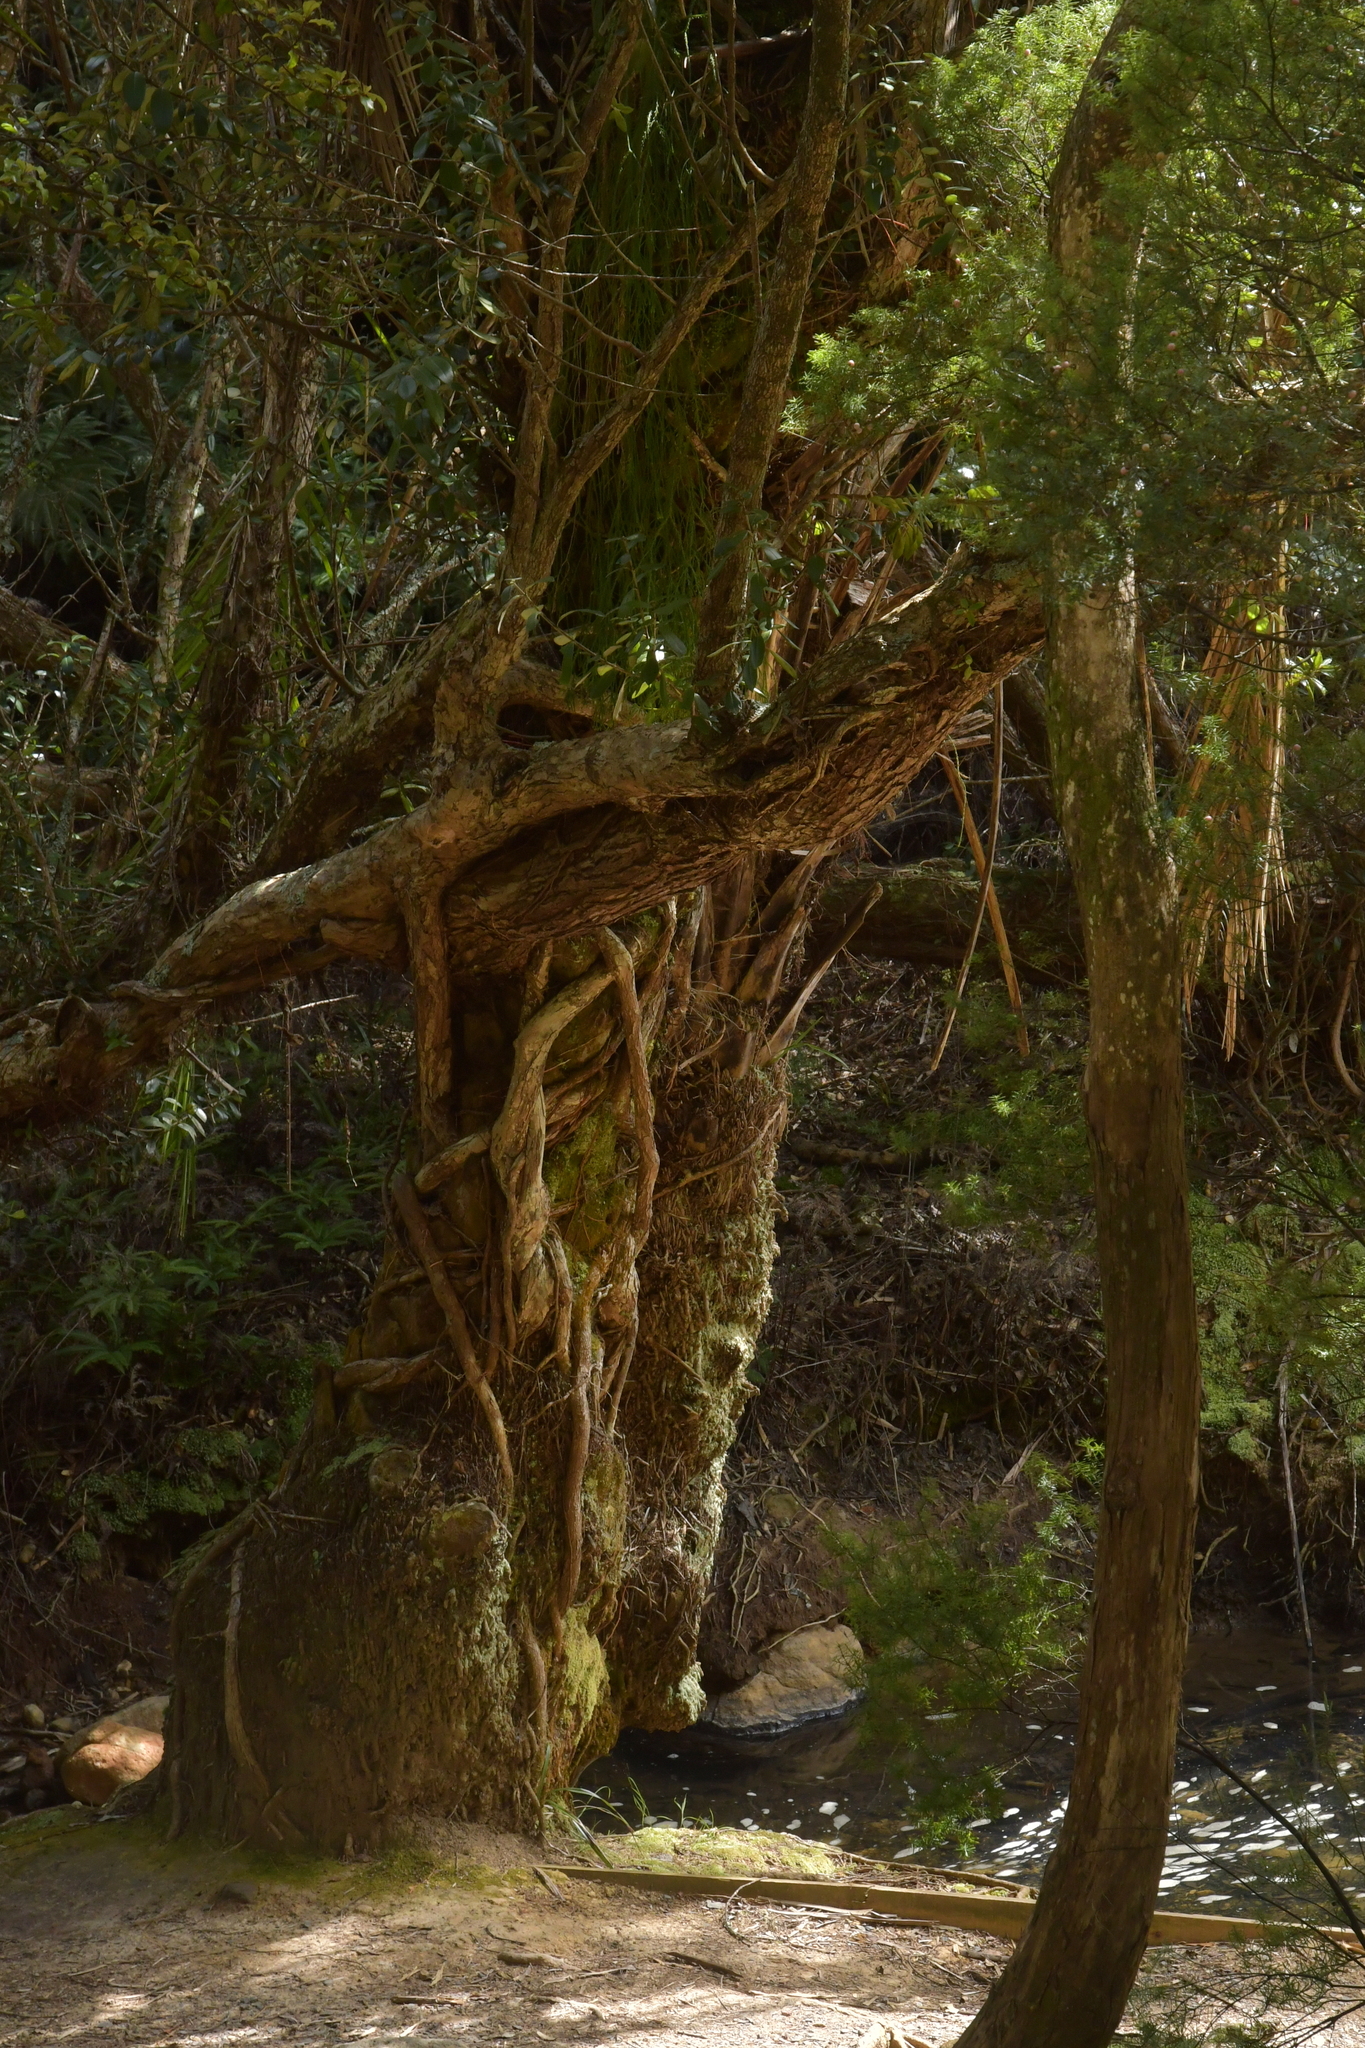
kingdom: Plantae
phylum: Tracheophyta
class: Liliopsida
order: Arecales
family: Arecaceae
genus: Rhopalostylis
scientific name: Rhopalostylis sapida
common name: Feather-duster palm
